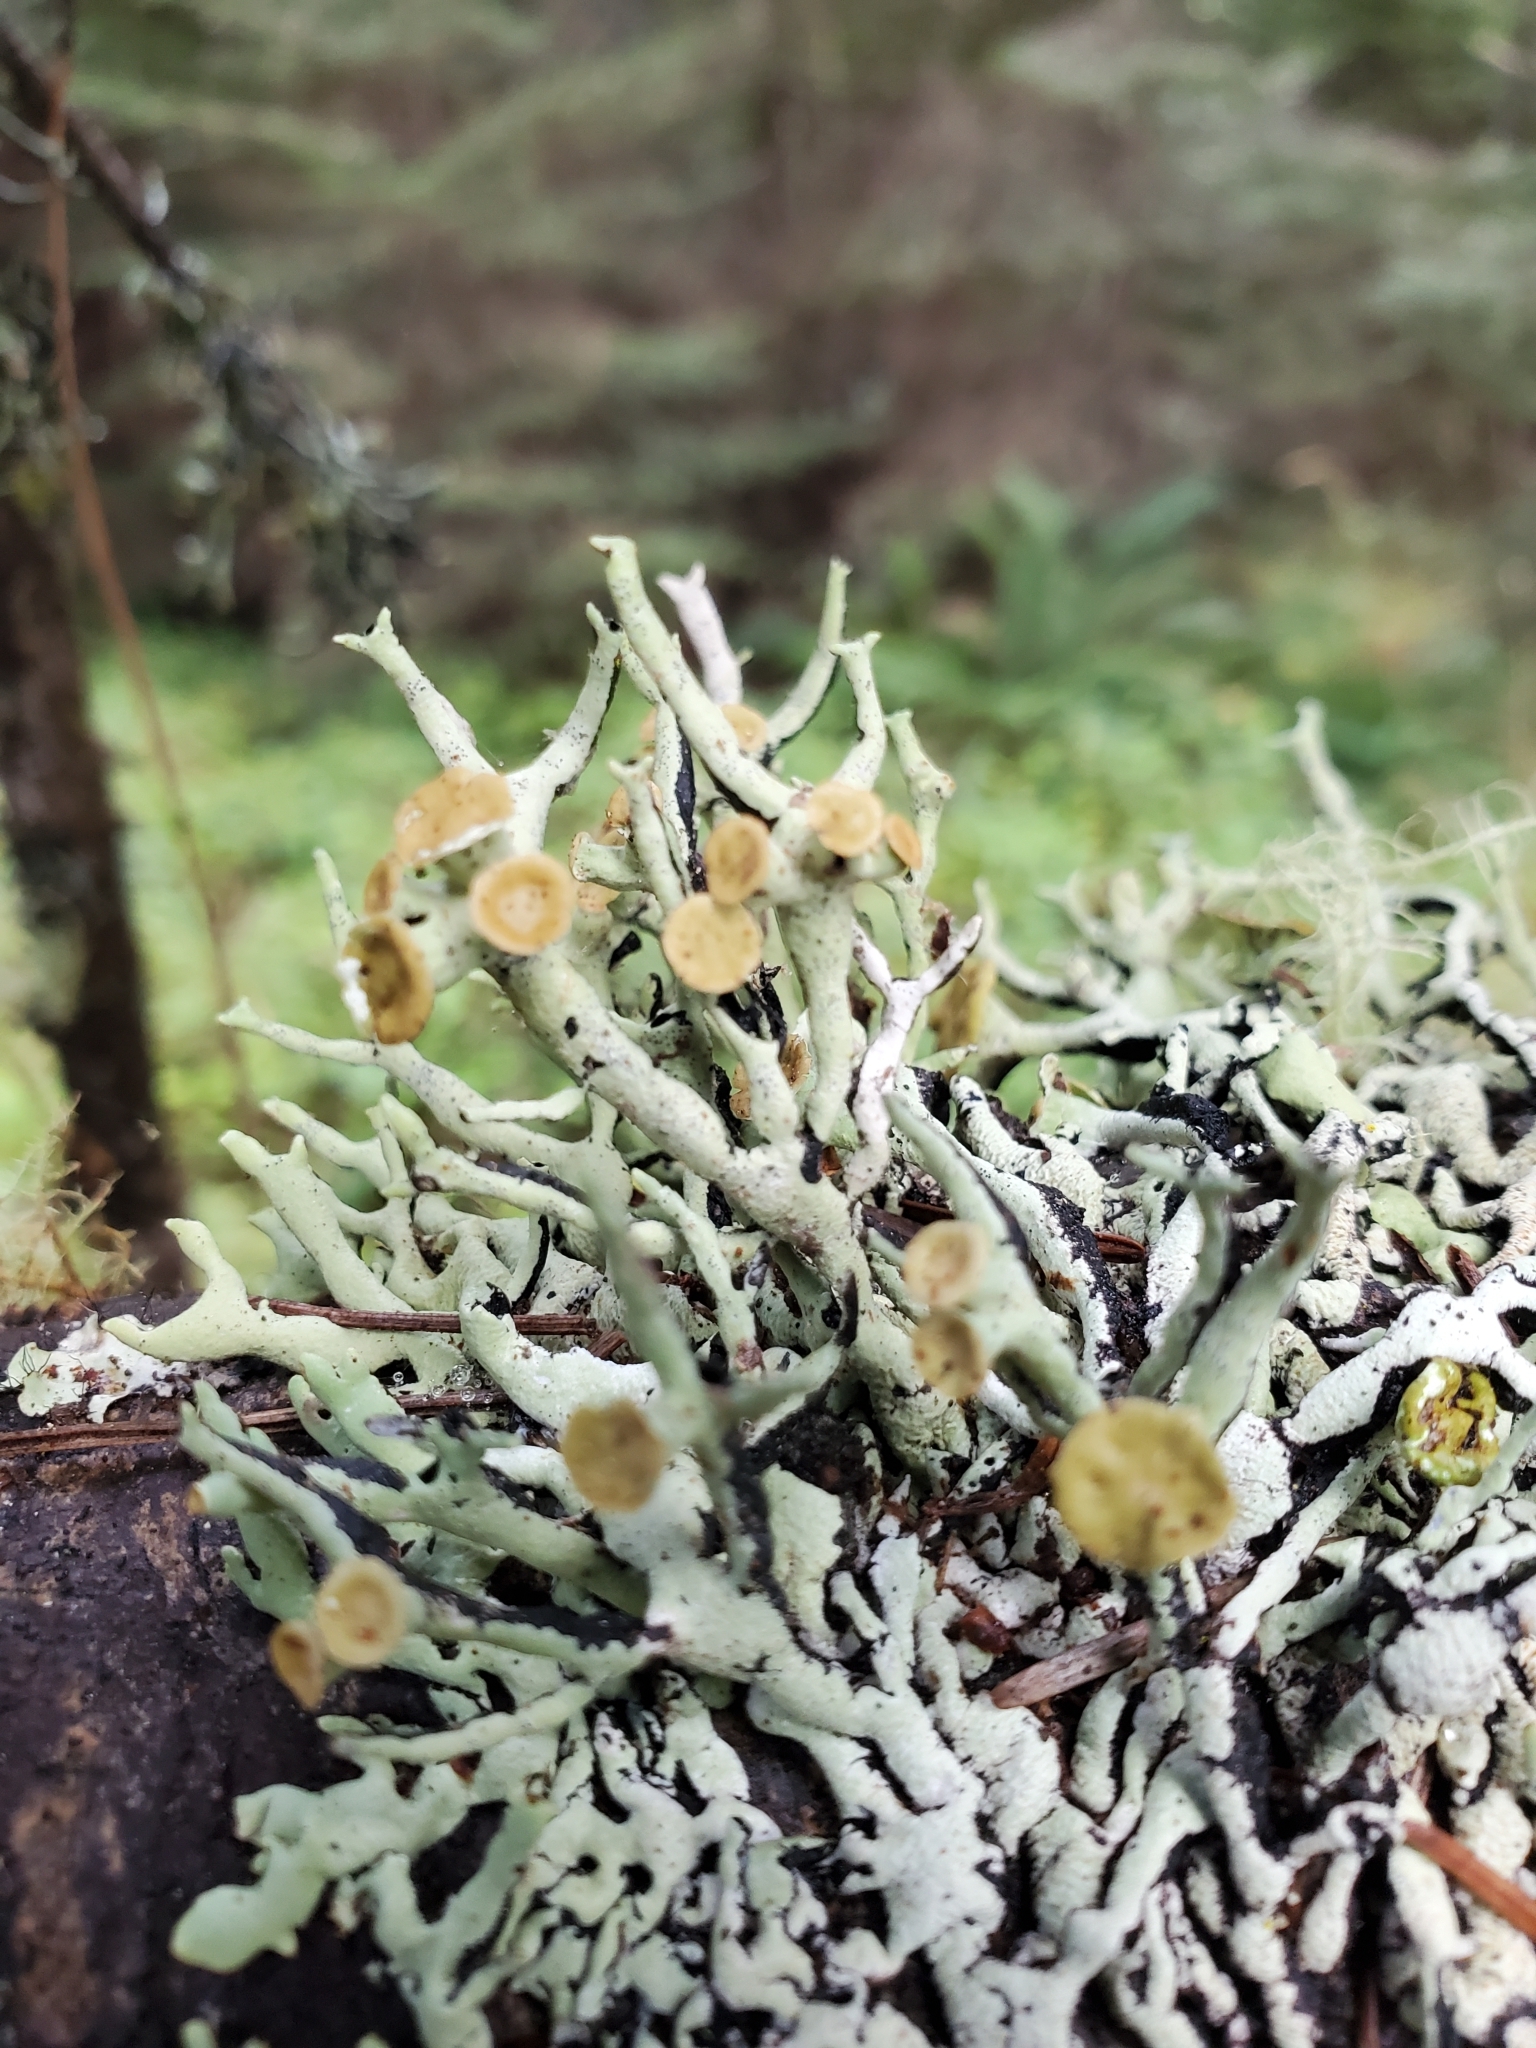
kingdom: Fungi
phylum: Ascomycota
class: Lecanoromycetes
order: Lecanorales
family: Parmeliaceae
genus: Hypogymnia
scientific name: Hypogymnia imshaugii
